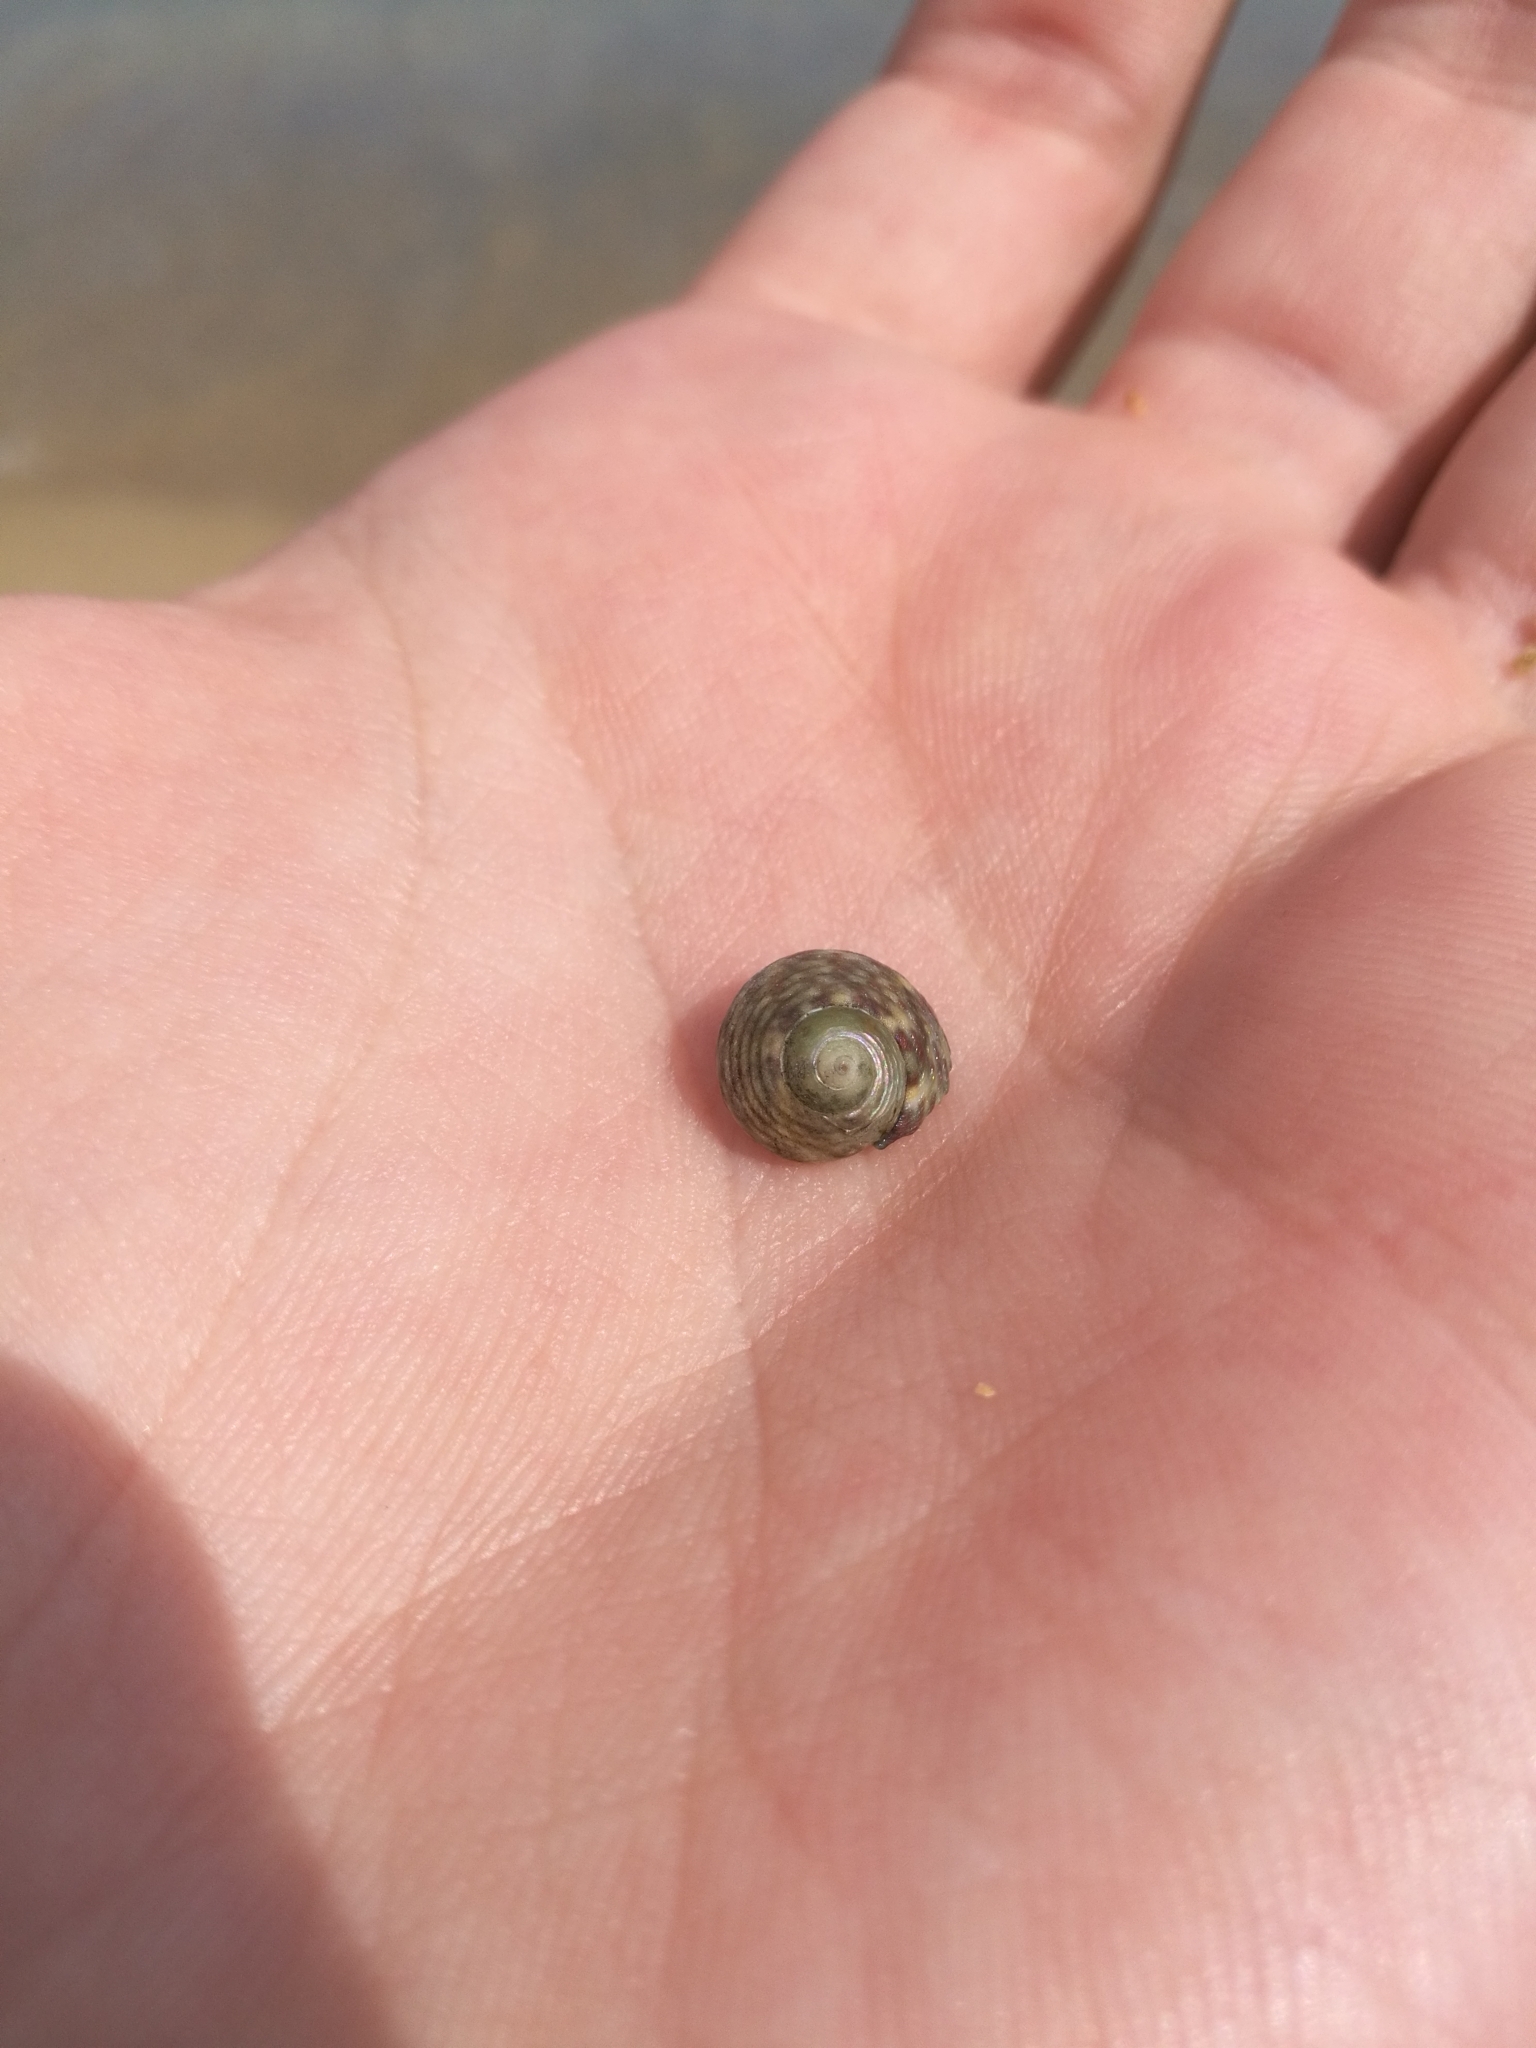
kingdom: Animalia
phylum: Mollusca
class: Gastropoda
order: Trochida
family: Trochidae
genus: Phorcus
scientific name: Phorcus turbinatus
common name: Turbinate monodont
